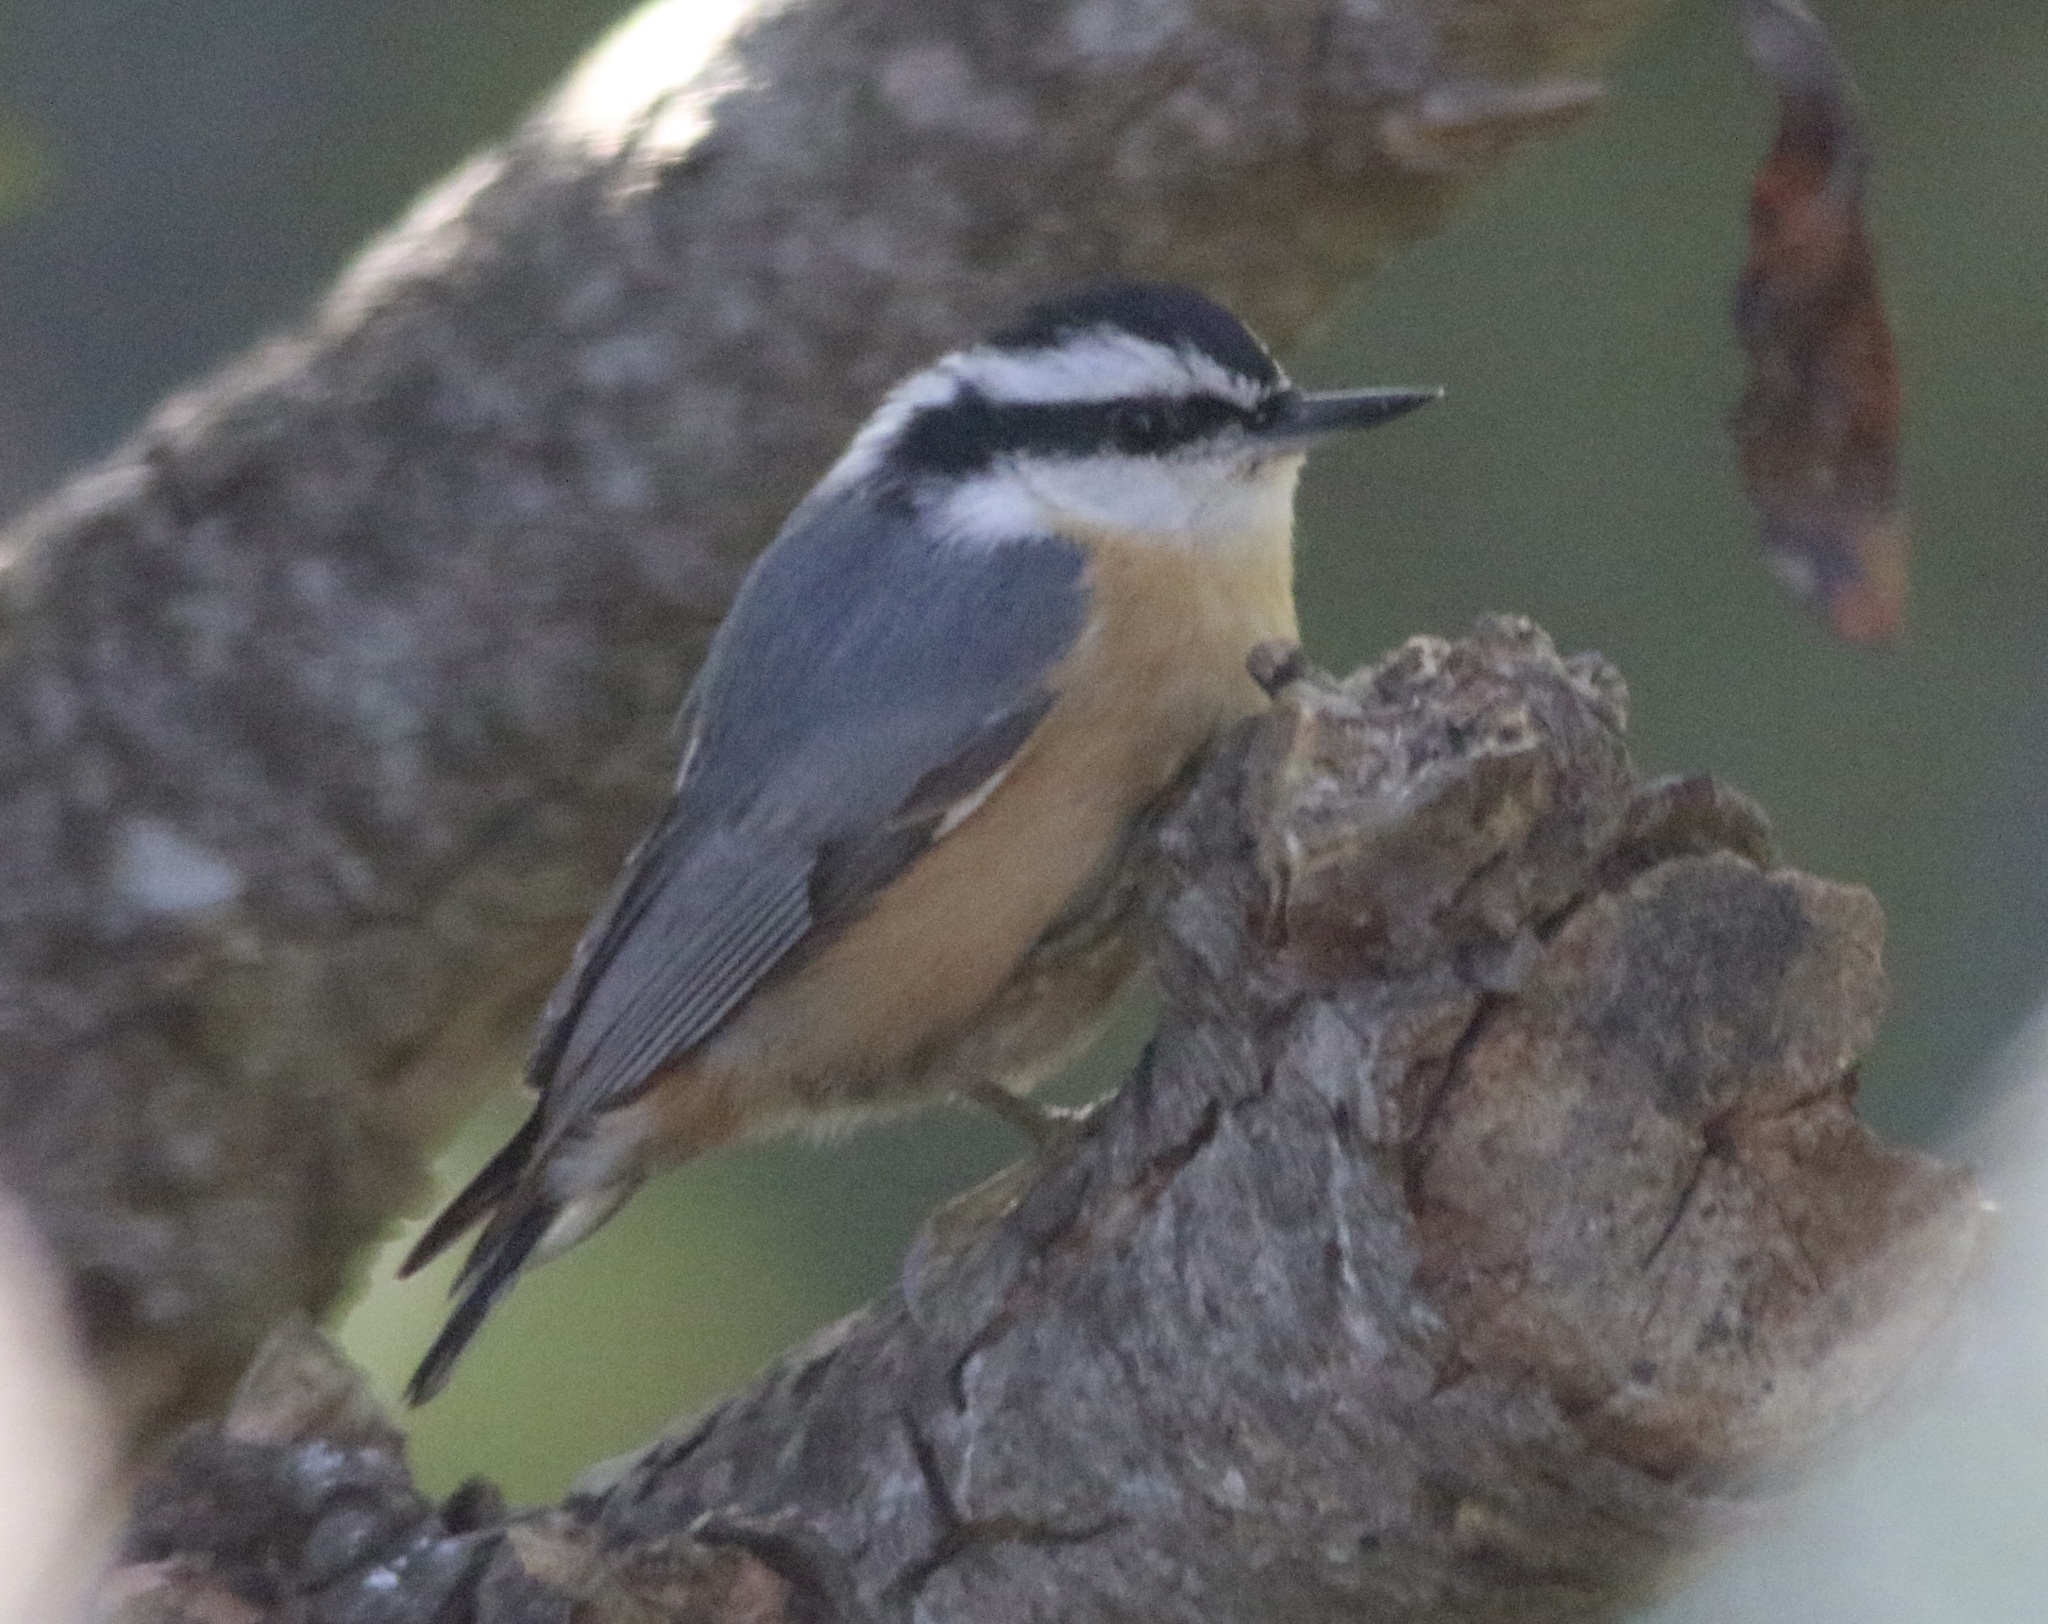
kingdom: Animalia
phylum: Chordata
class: Aves
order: Passeriformes
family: Sittidae
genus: Sitta
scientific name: Sitta canadensis
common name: Red-breasted nuthatch
